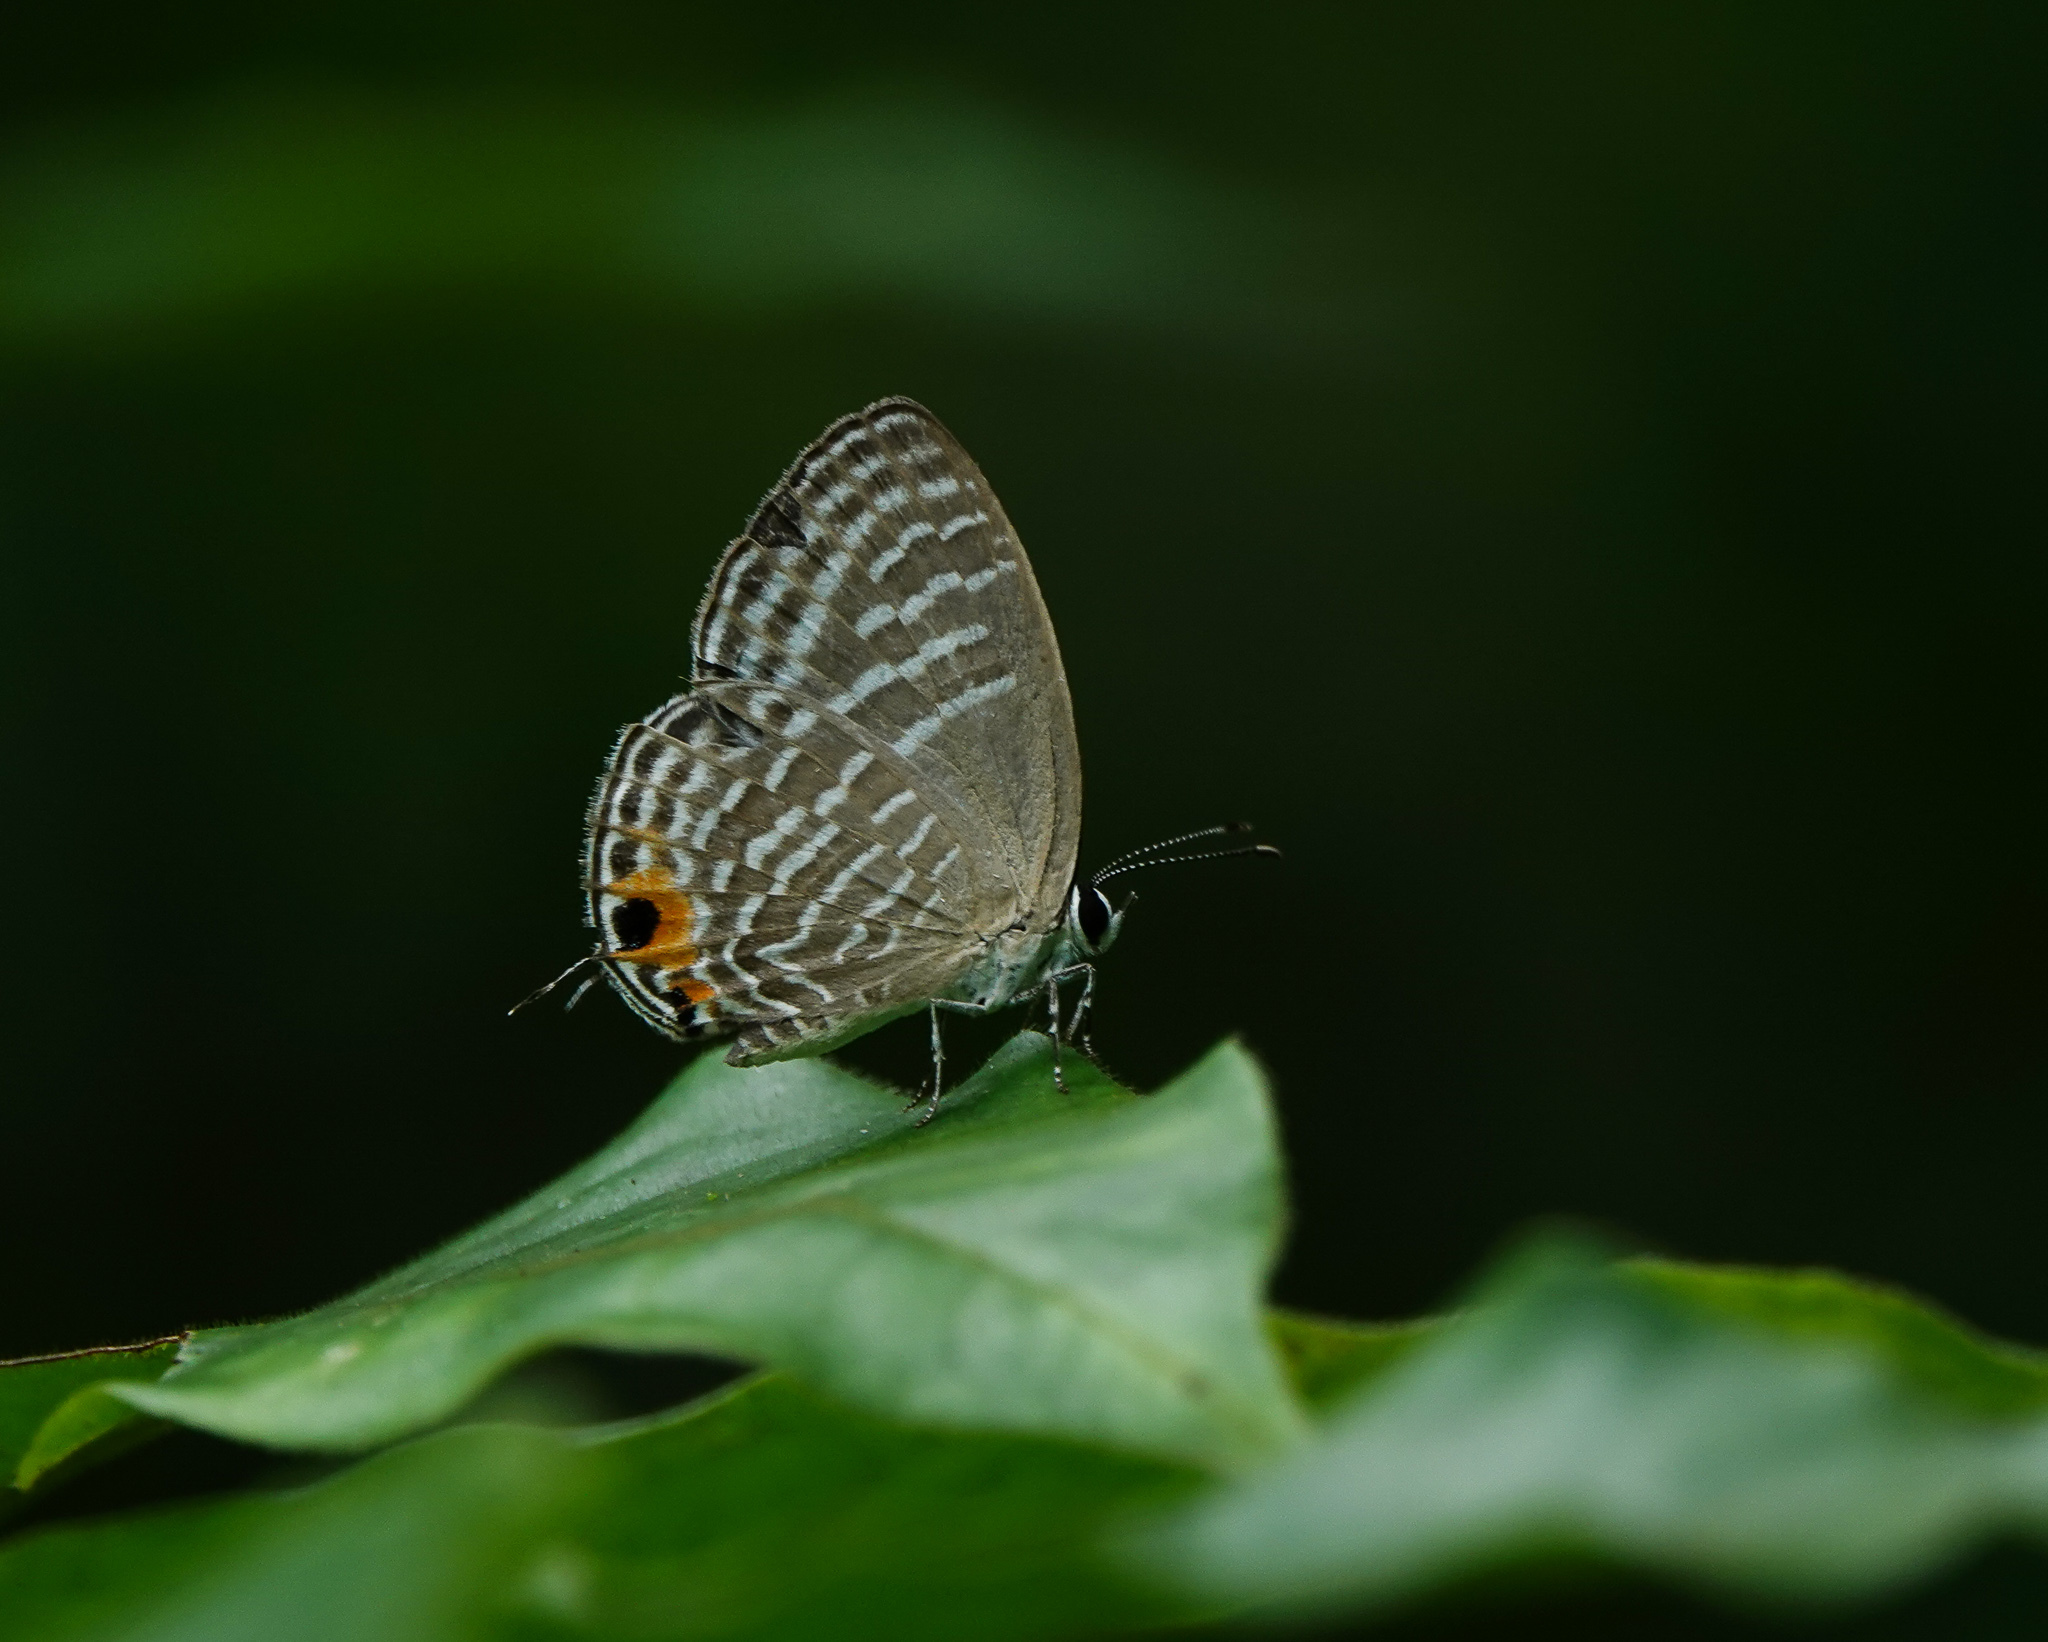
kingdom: Animalia
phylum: Arthropoda
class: Insecta
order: Lepidoptera
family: Lycaenidae
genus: Jamides
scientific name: Jamides alecto
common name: Metallic cerulean
